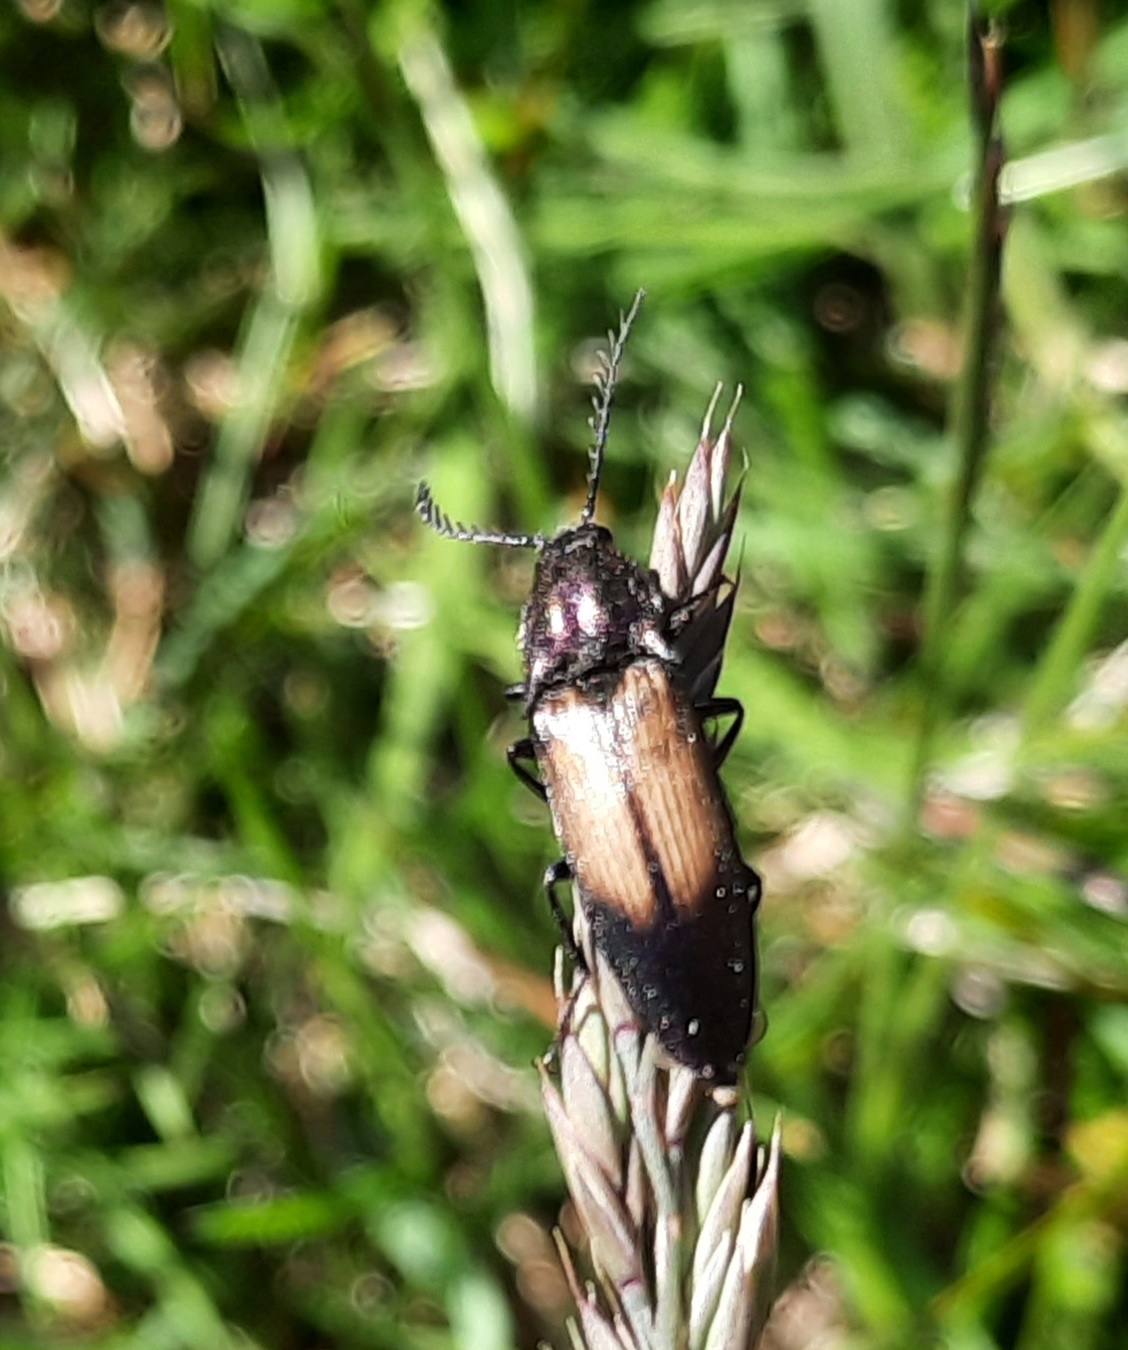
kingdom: Animalia
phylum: Arthropoda
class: Insecta
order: Coleoptera
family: Elateridae
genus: Ctenicera
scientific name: Ctenicera cuprea
